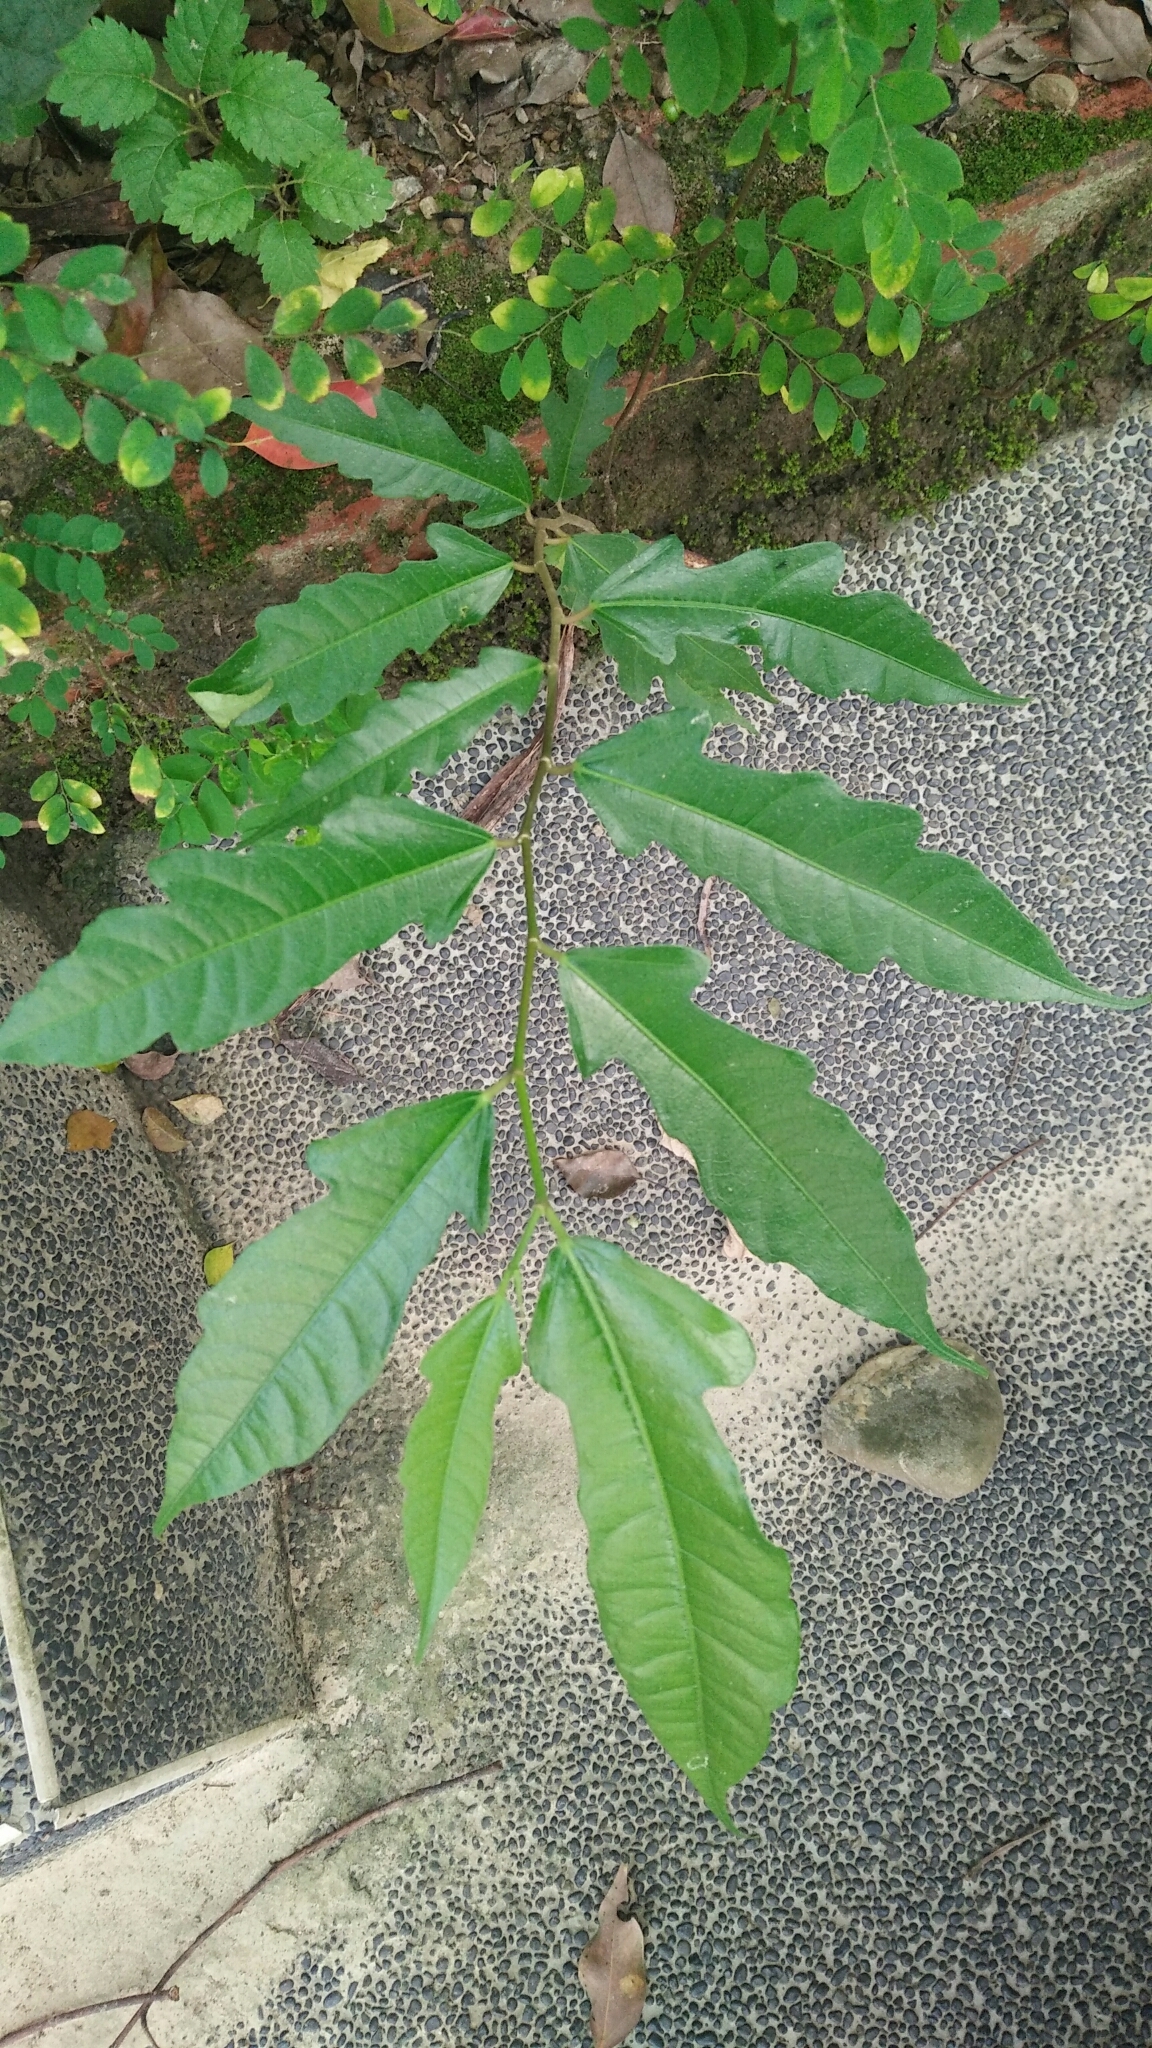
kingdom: Plantae
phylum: Tracheophyta
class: Magnoliopsida
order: Rosales
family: Moraceae
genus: Ficus
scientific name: Ficus ampelos
